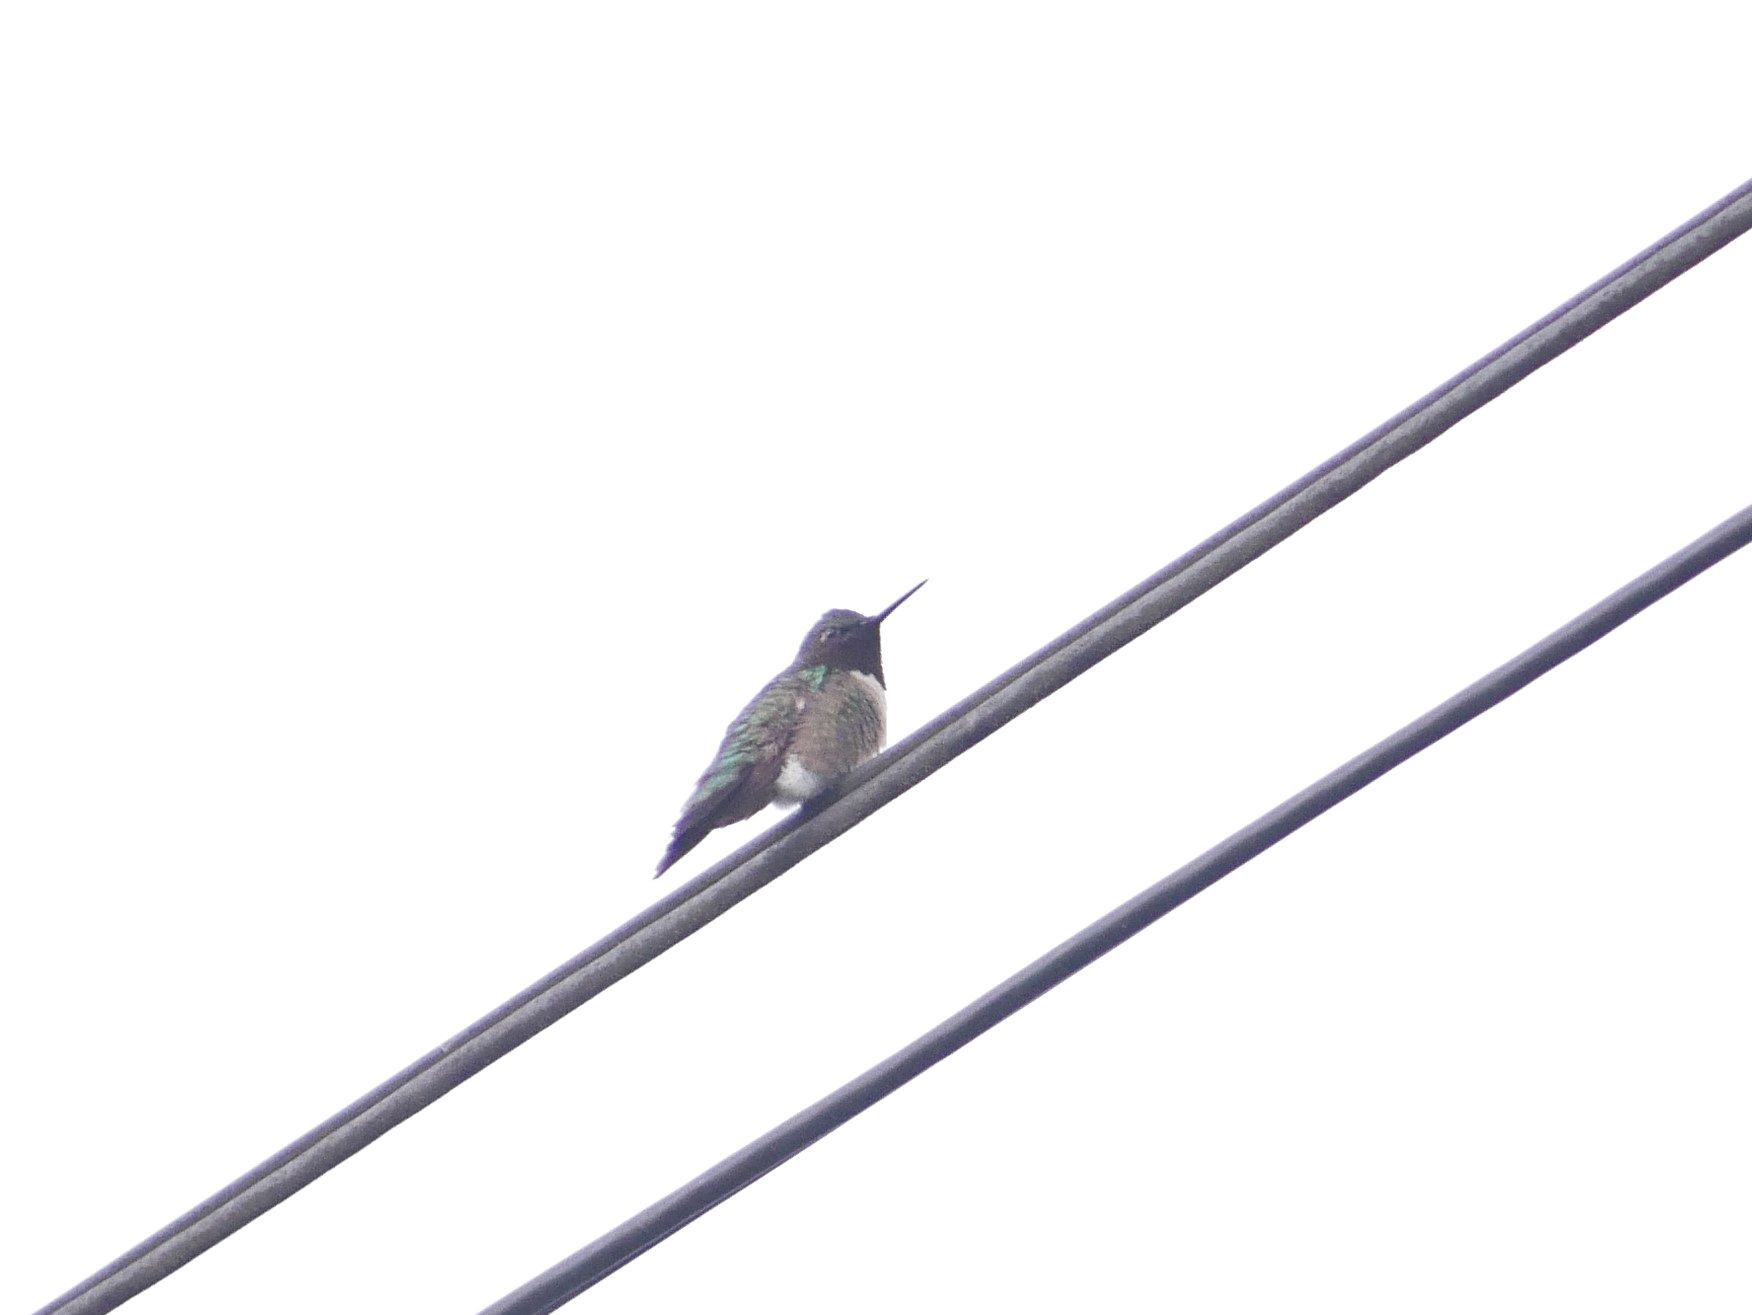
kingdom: Animalia
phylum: Chordata
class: Aves
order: Apodiformes
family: Trochilidae
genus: Archilochus
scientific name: Archilochus colubris
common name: Ruby-throated hummingbird
